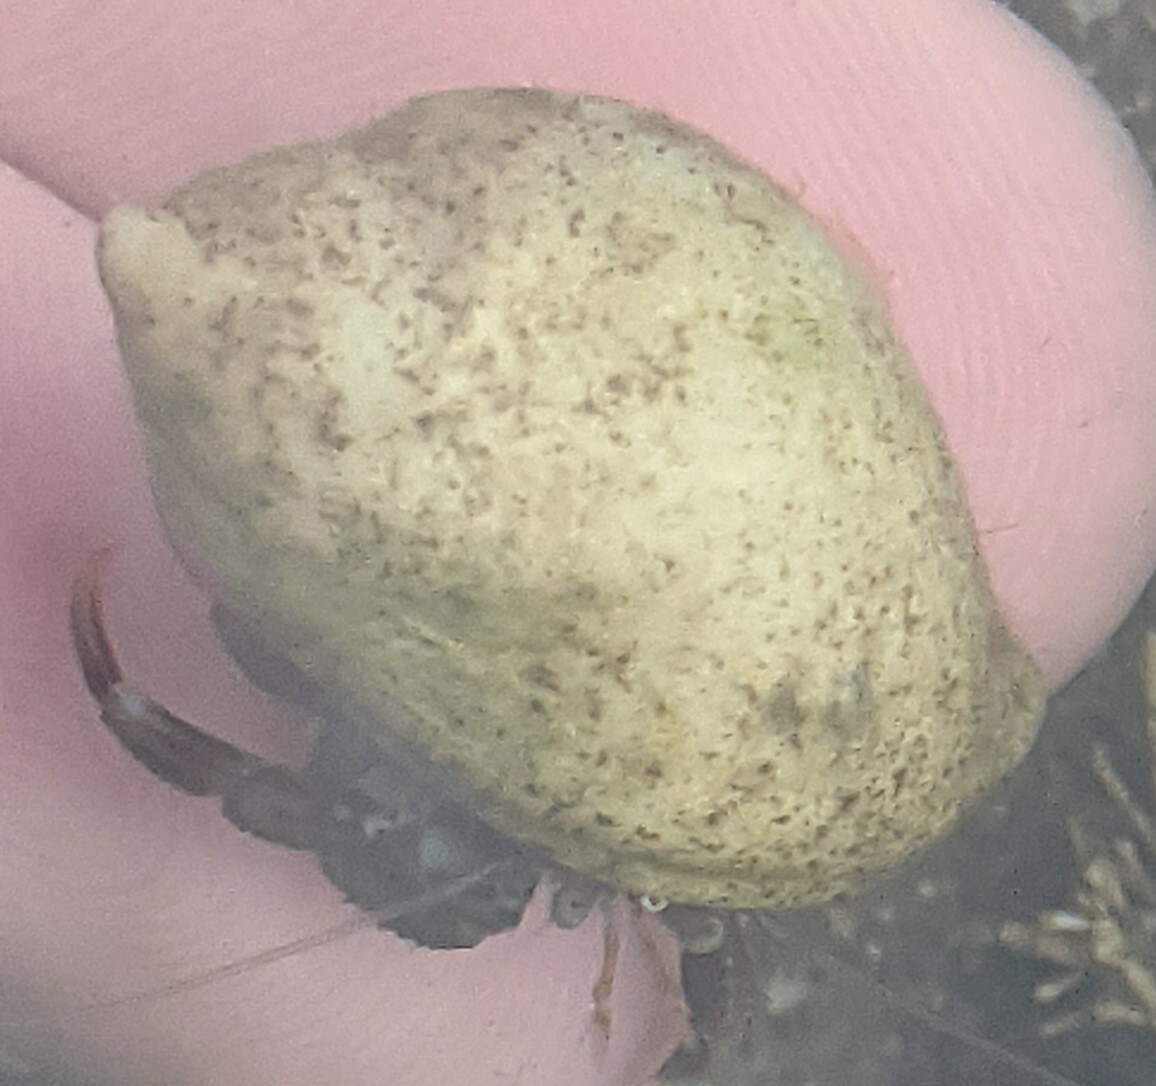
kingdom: Animalia
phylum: Arthropoda
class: Malacostraca
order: Decapoda
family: Paguridae
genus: Pagurus
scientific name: Pagurus bernhardus
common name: Hermit crab
